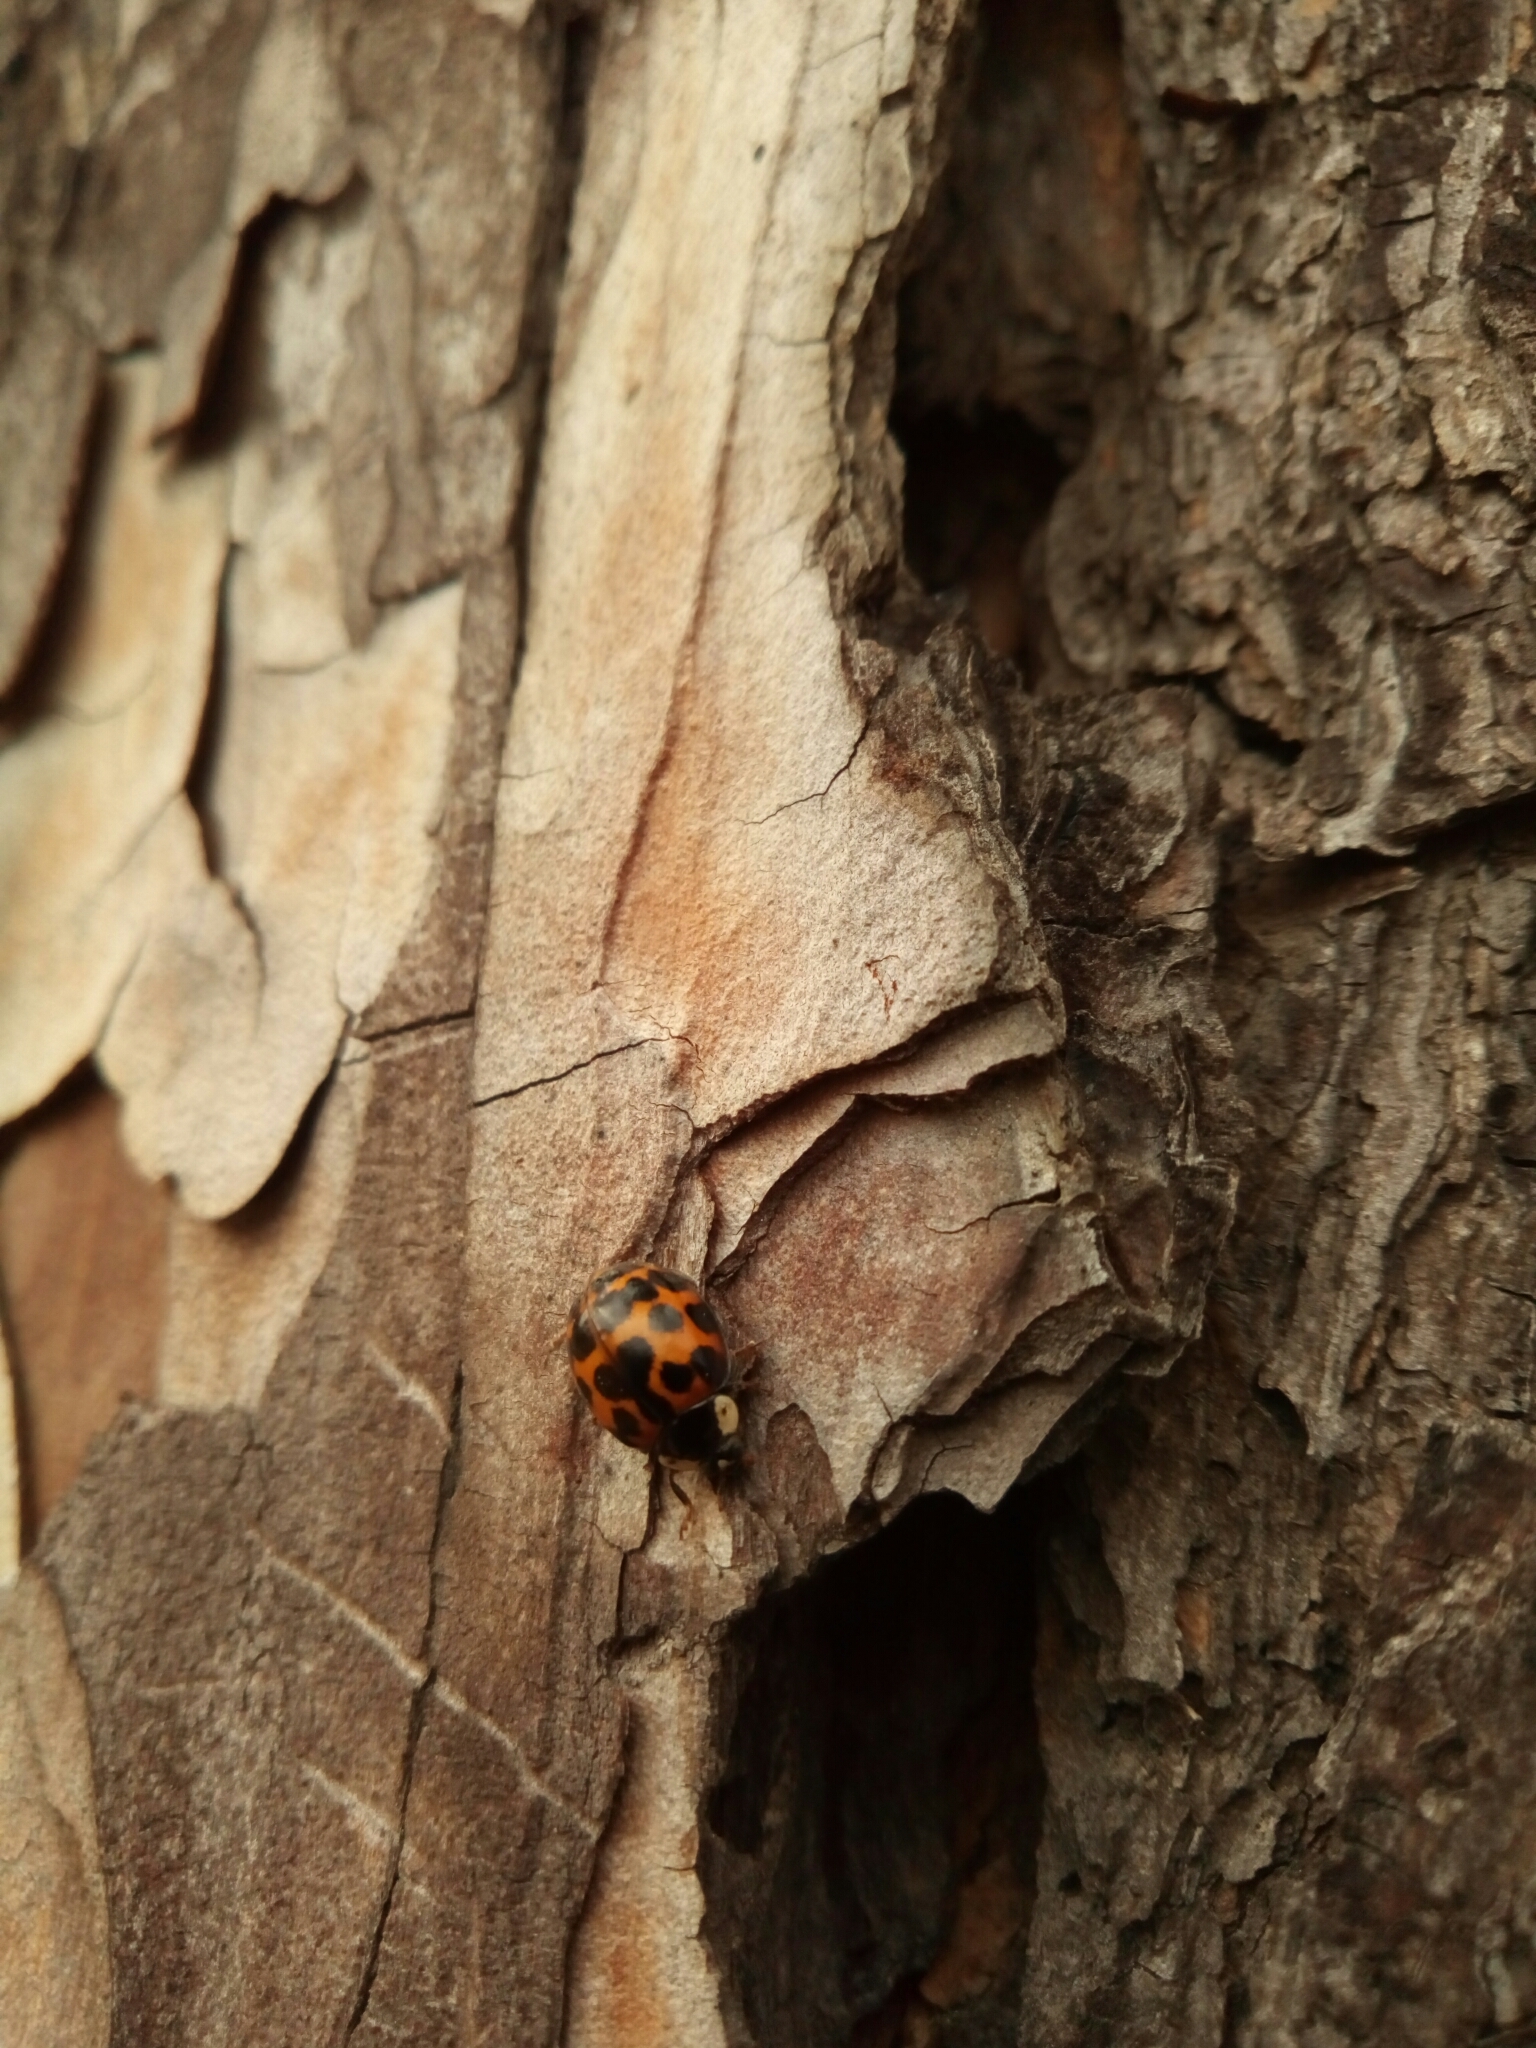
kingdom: Animalia
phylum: Arthropoda
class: Insecta
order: Coleoptera
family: Coccinellidae
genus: Harmonia
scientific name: Harmonia axyridis
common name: Harlequin ladybird
